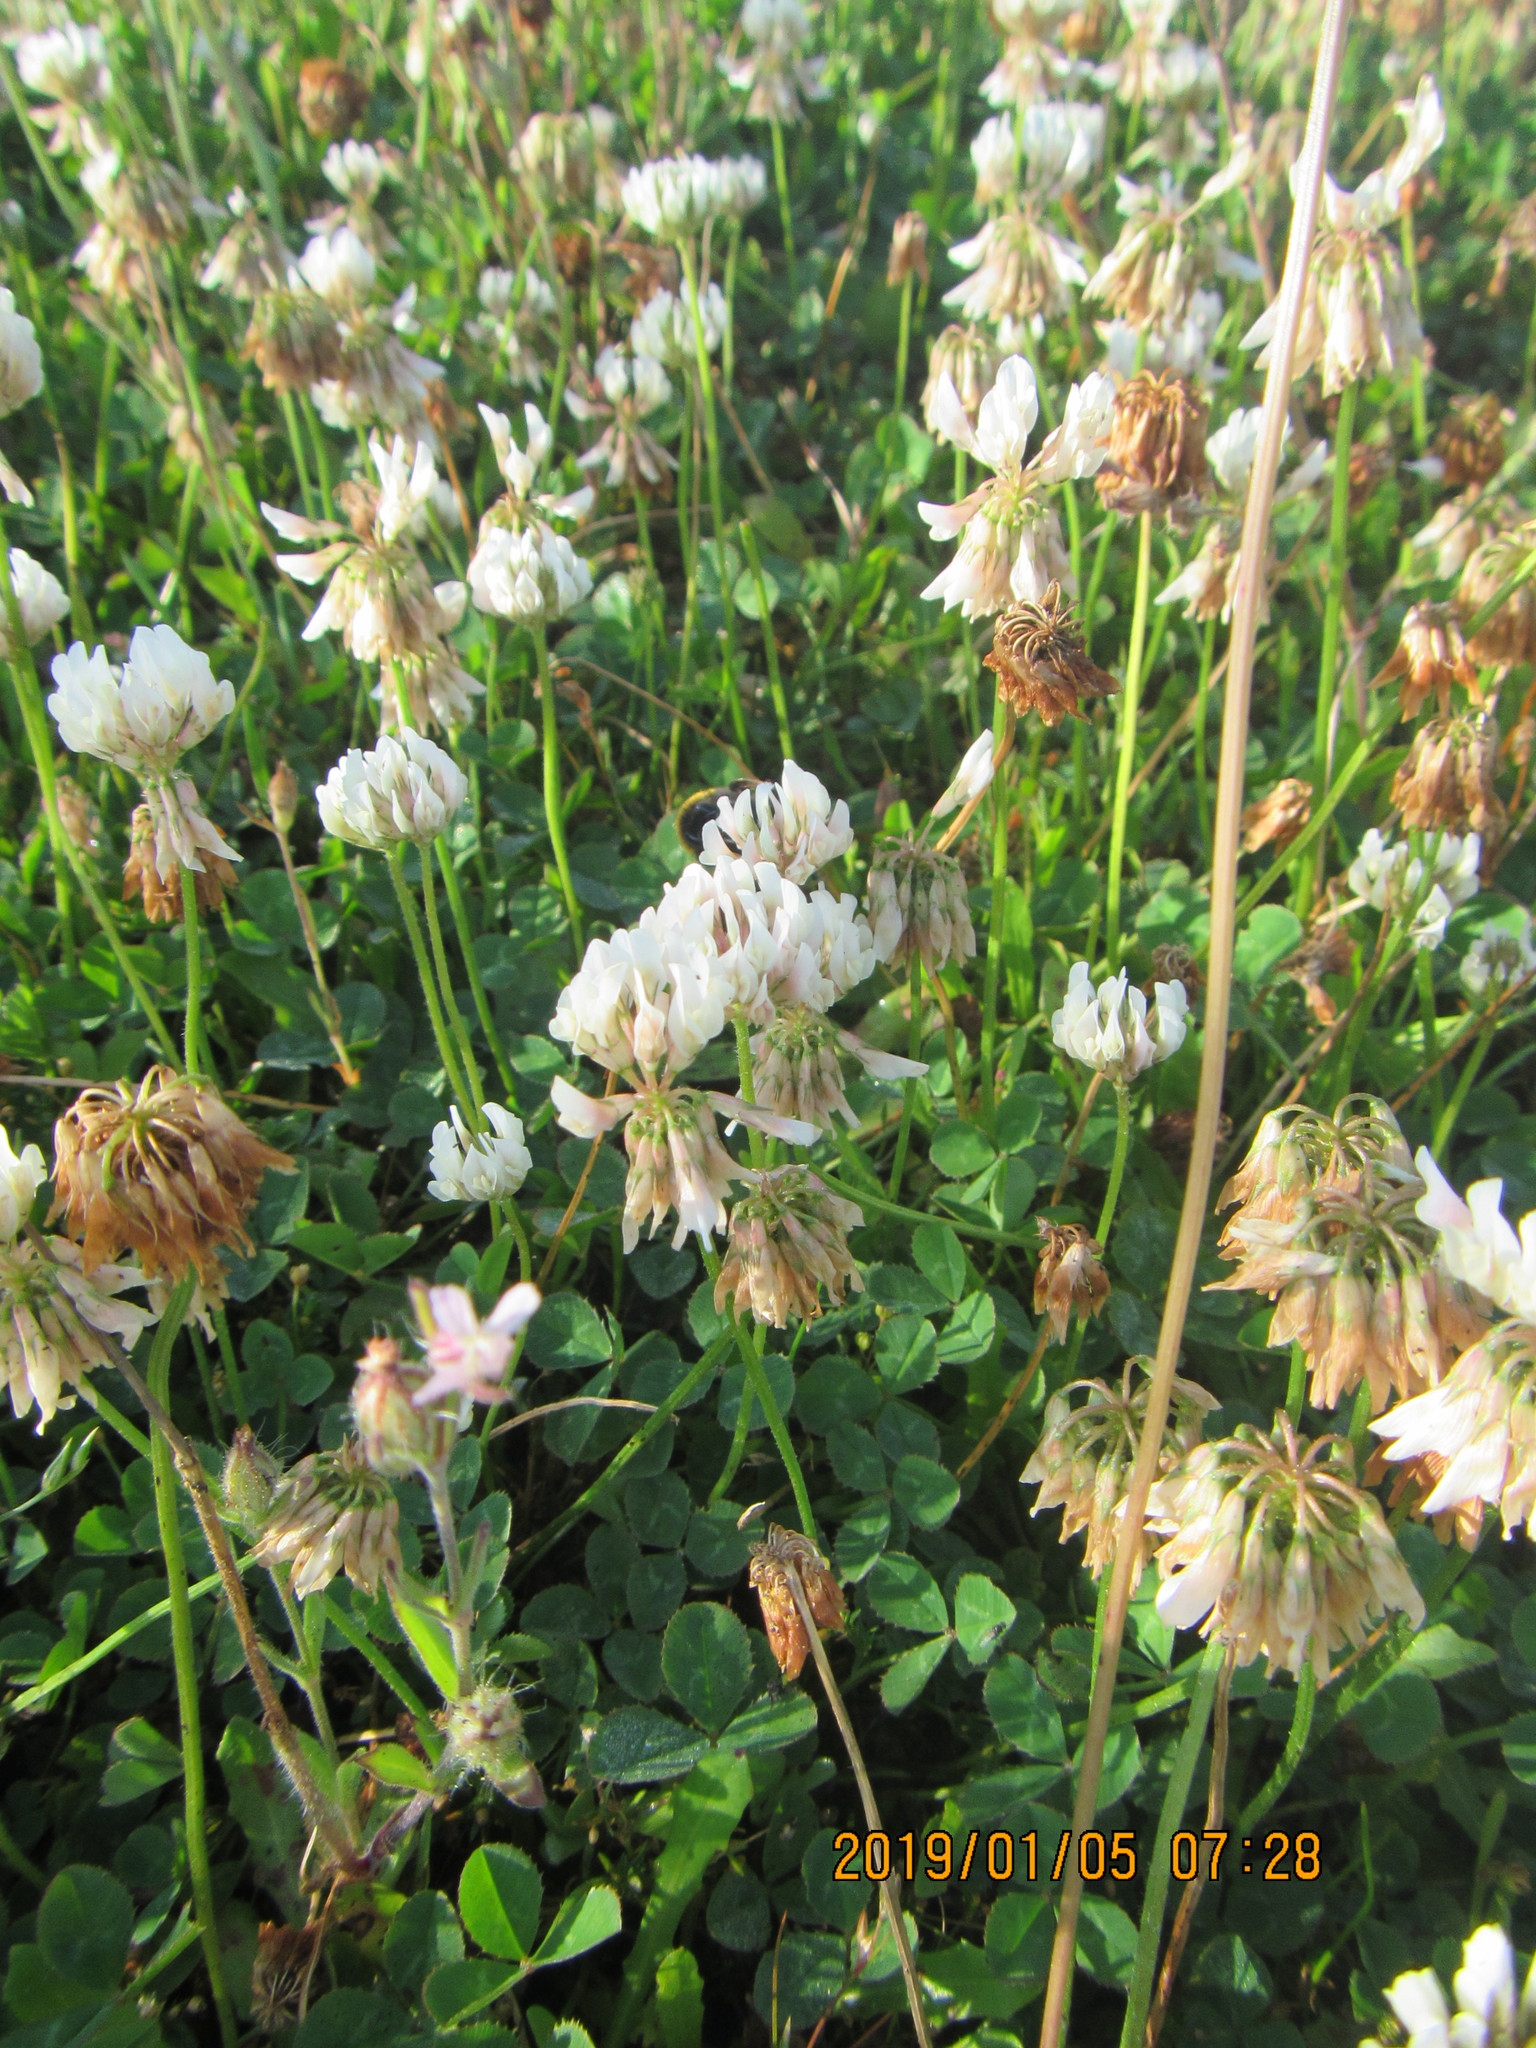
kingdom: Plantae
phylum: Tracheophyta
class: Magnoliopsida
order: Fabales
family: Fabaceae
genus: Trifolium
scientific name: Trifolium repens
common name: White clover
